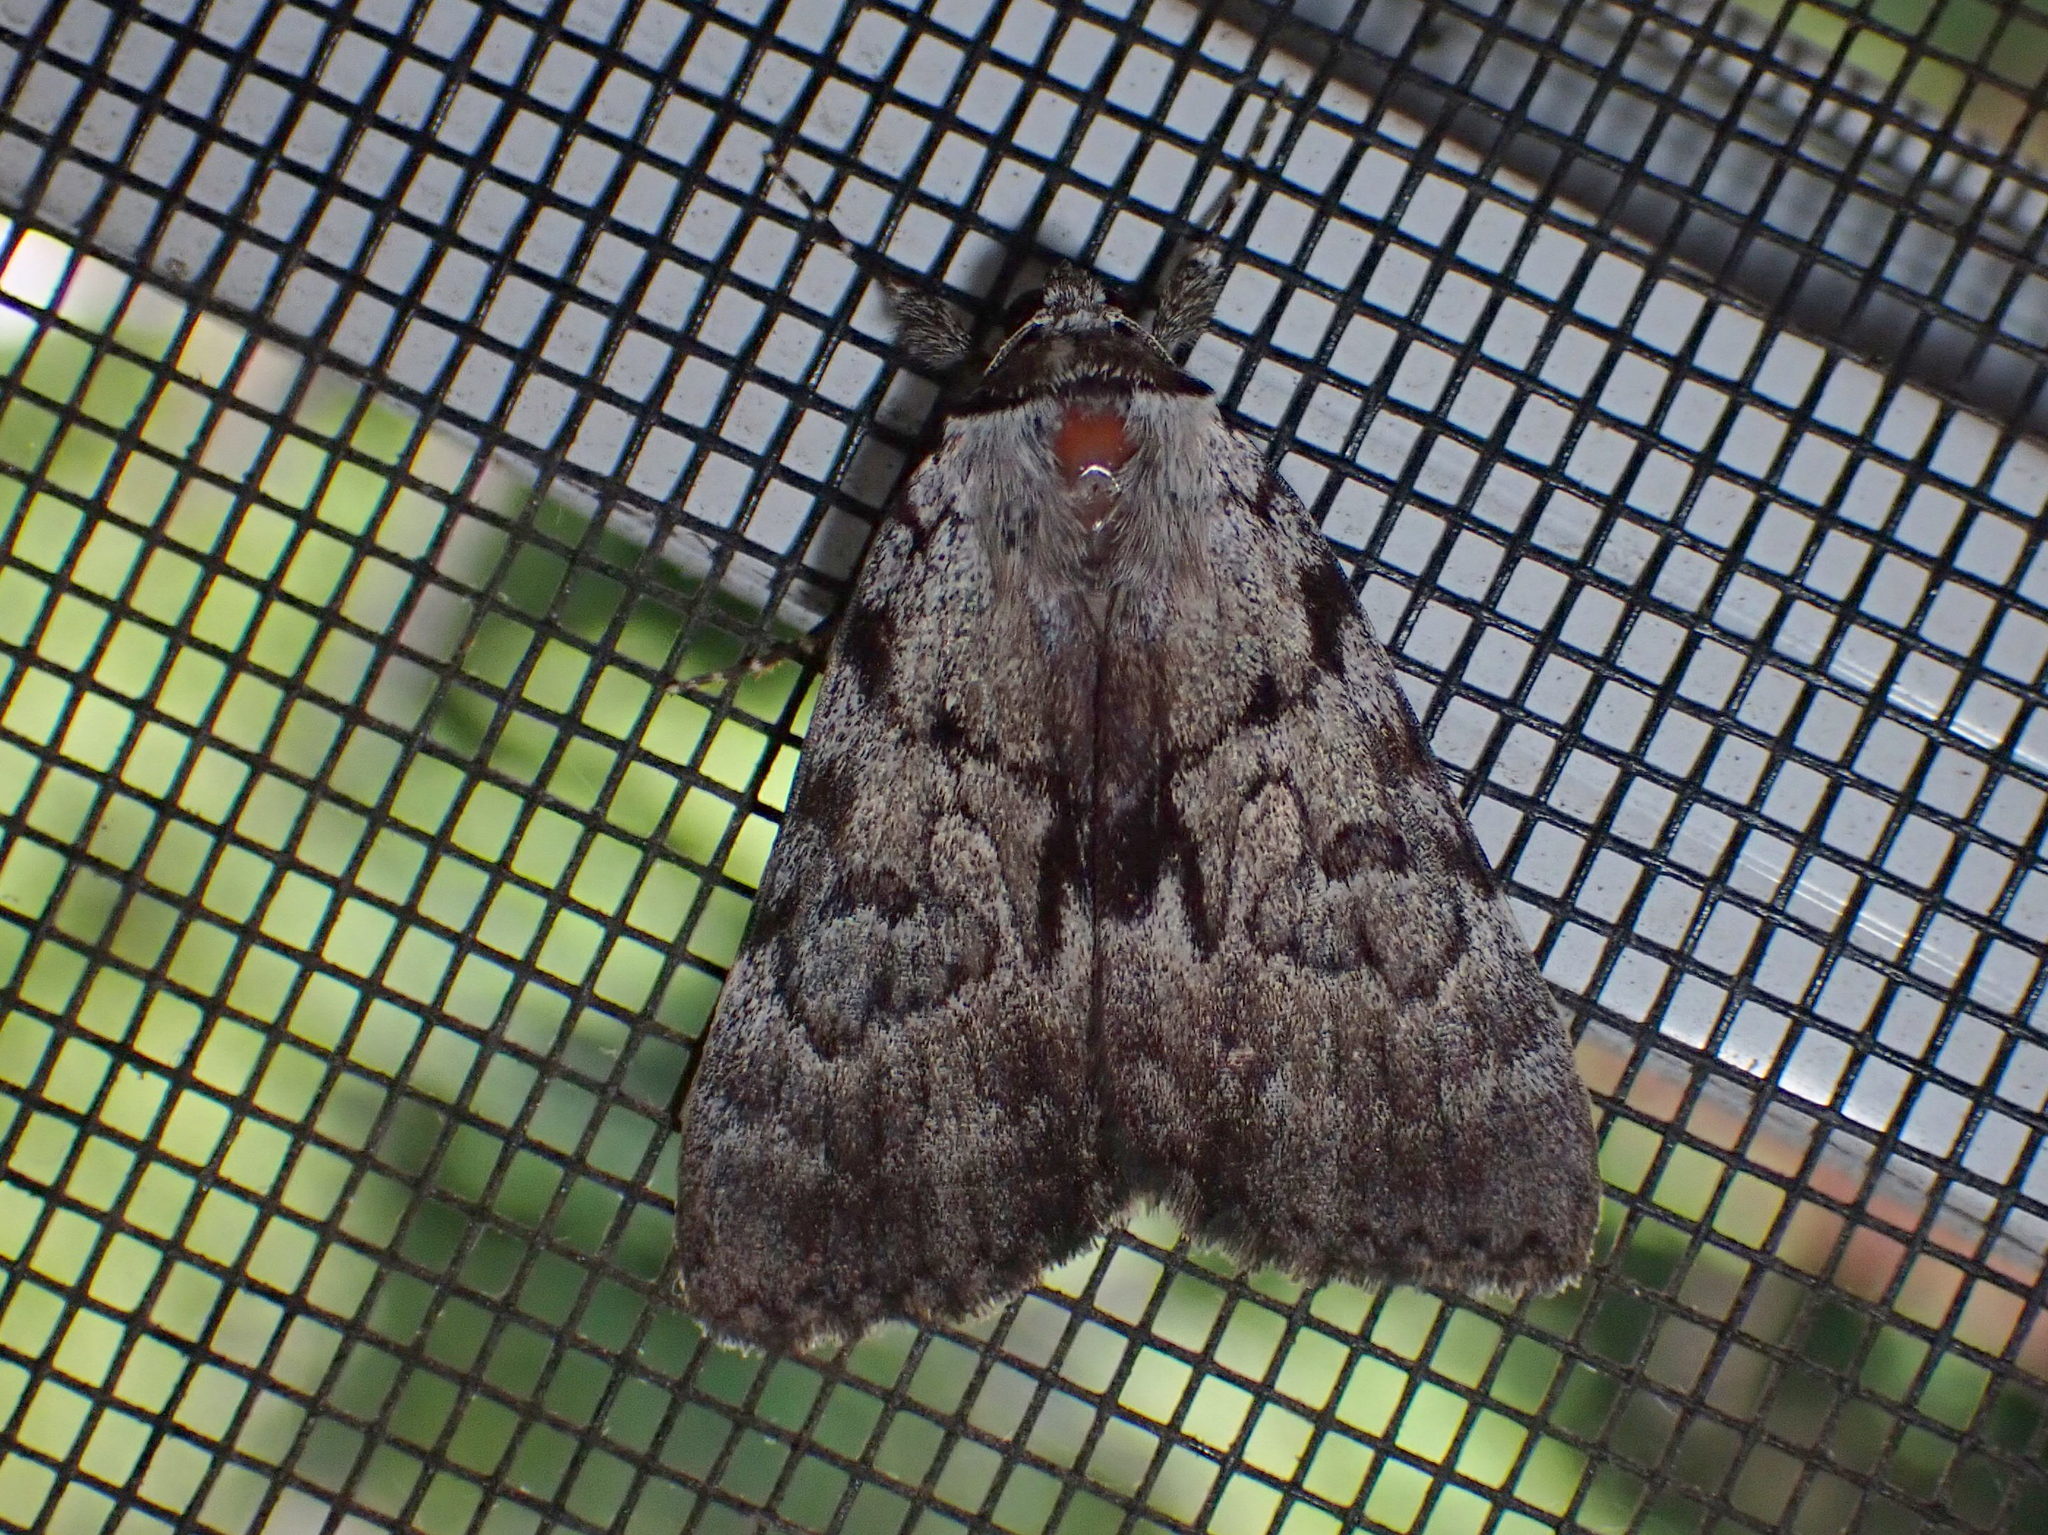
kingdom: Animalia
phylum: Arthropoda
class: Insecta
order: Lepidoptera
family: Erebidae
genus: Catocala
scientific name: Catocala sordida
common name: Sordid underwing
